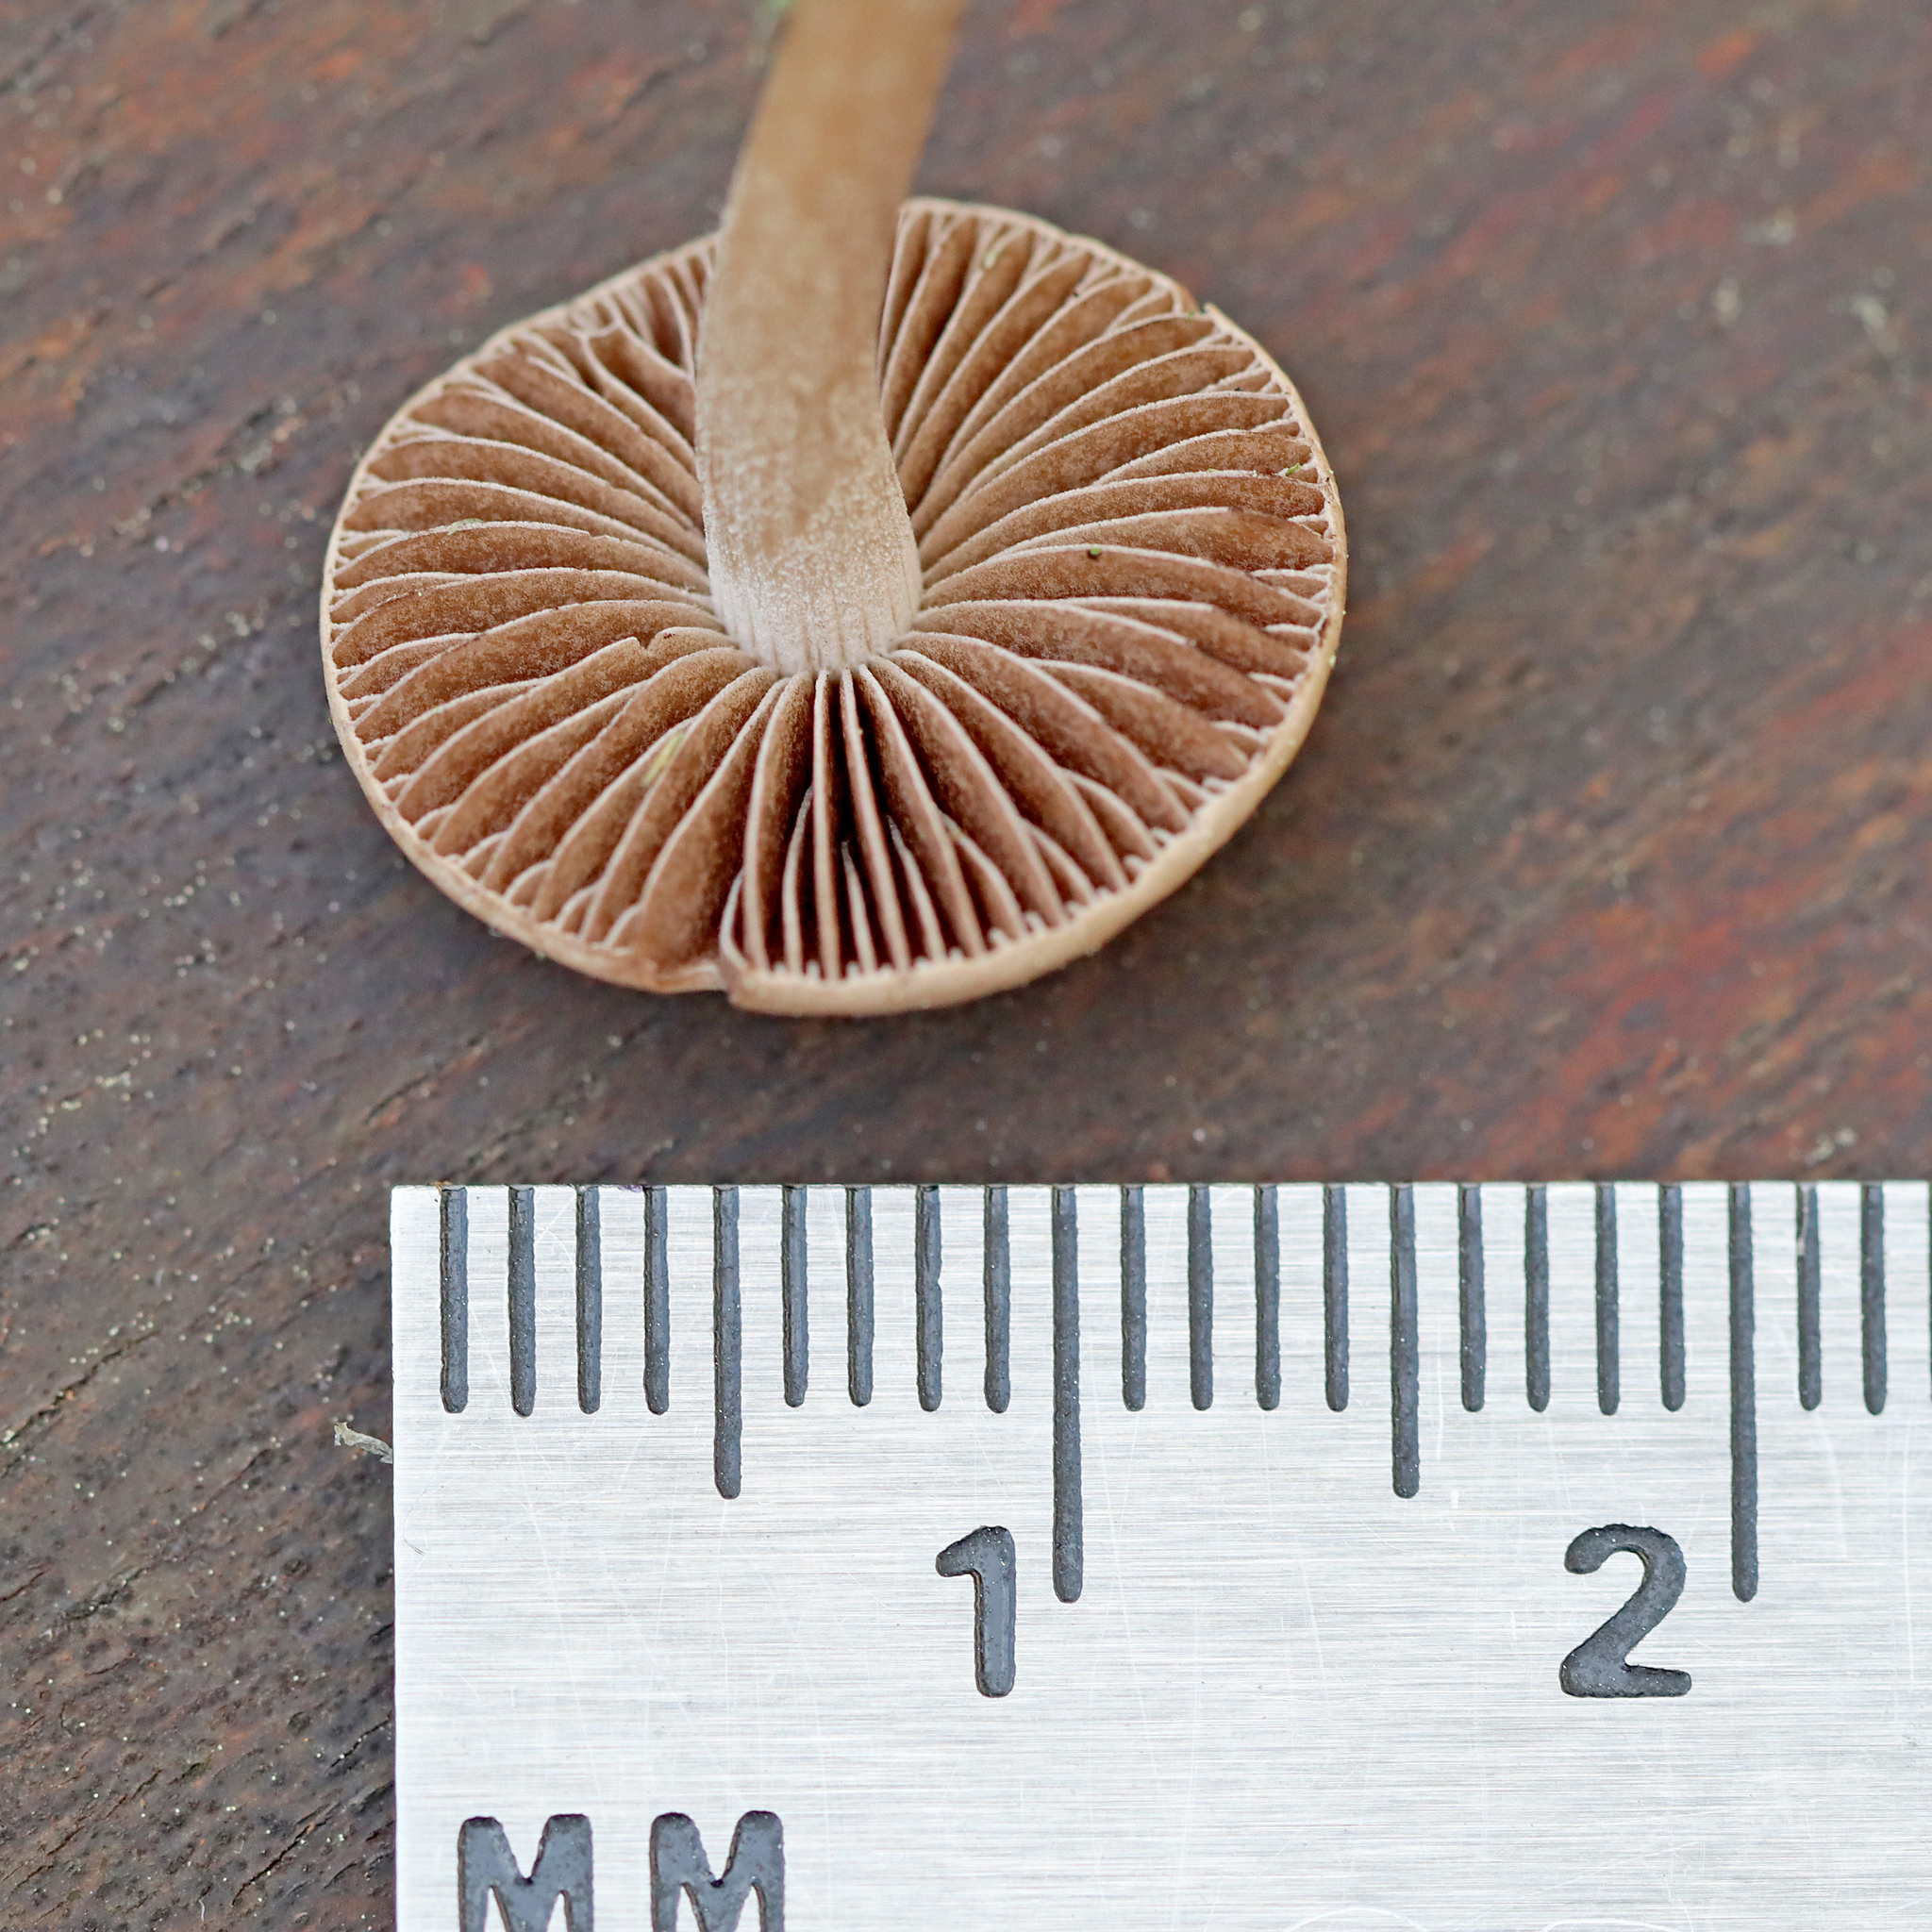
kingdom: Fungi
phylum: Basidiomycota
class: Agaricomycetes
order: Agaricales
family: Bolbitiaceae
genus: Panaeolina
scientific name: Panaeolina foenisecii
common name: Brown hay cap
